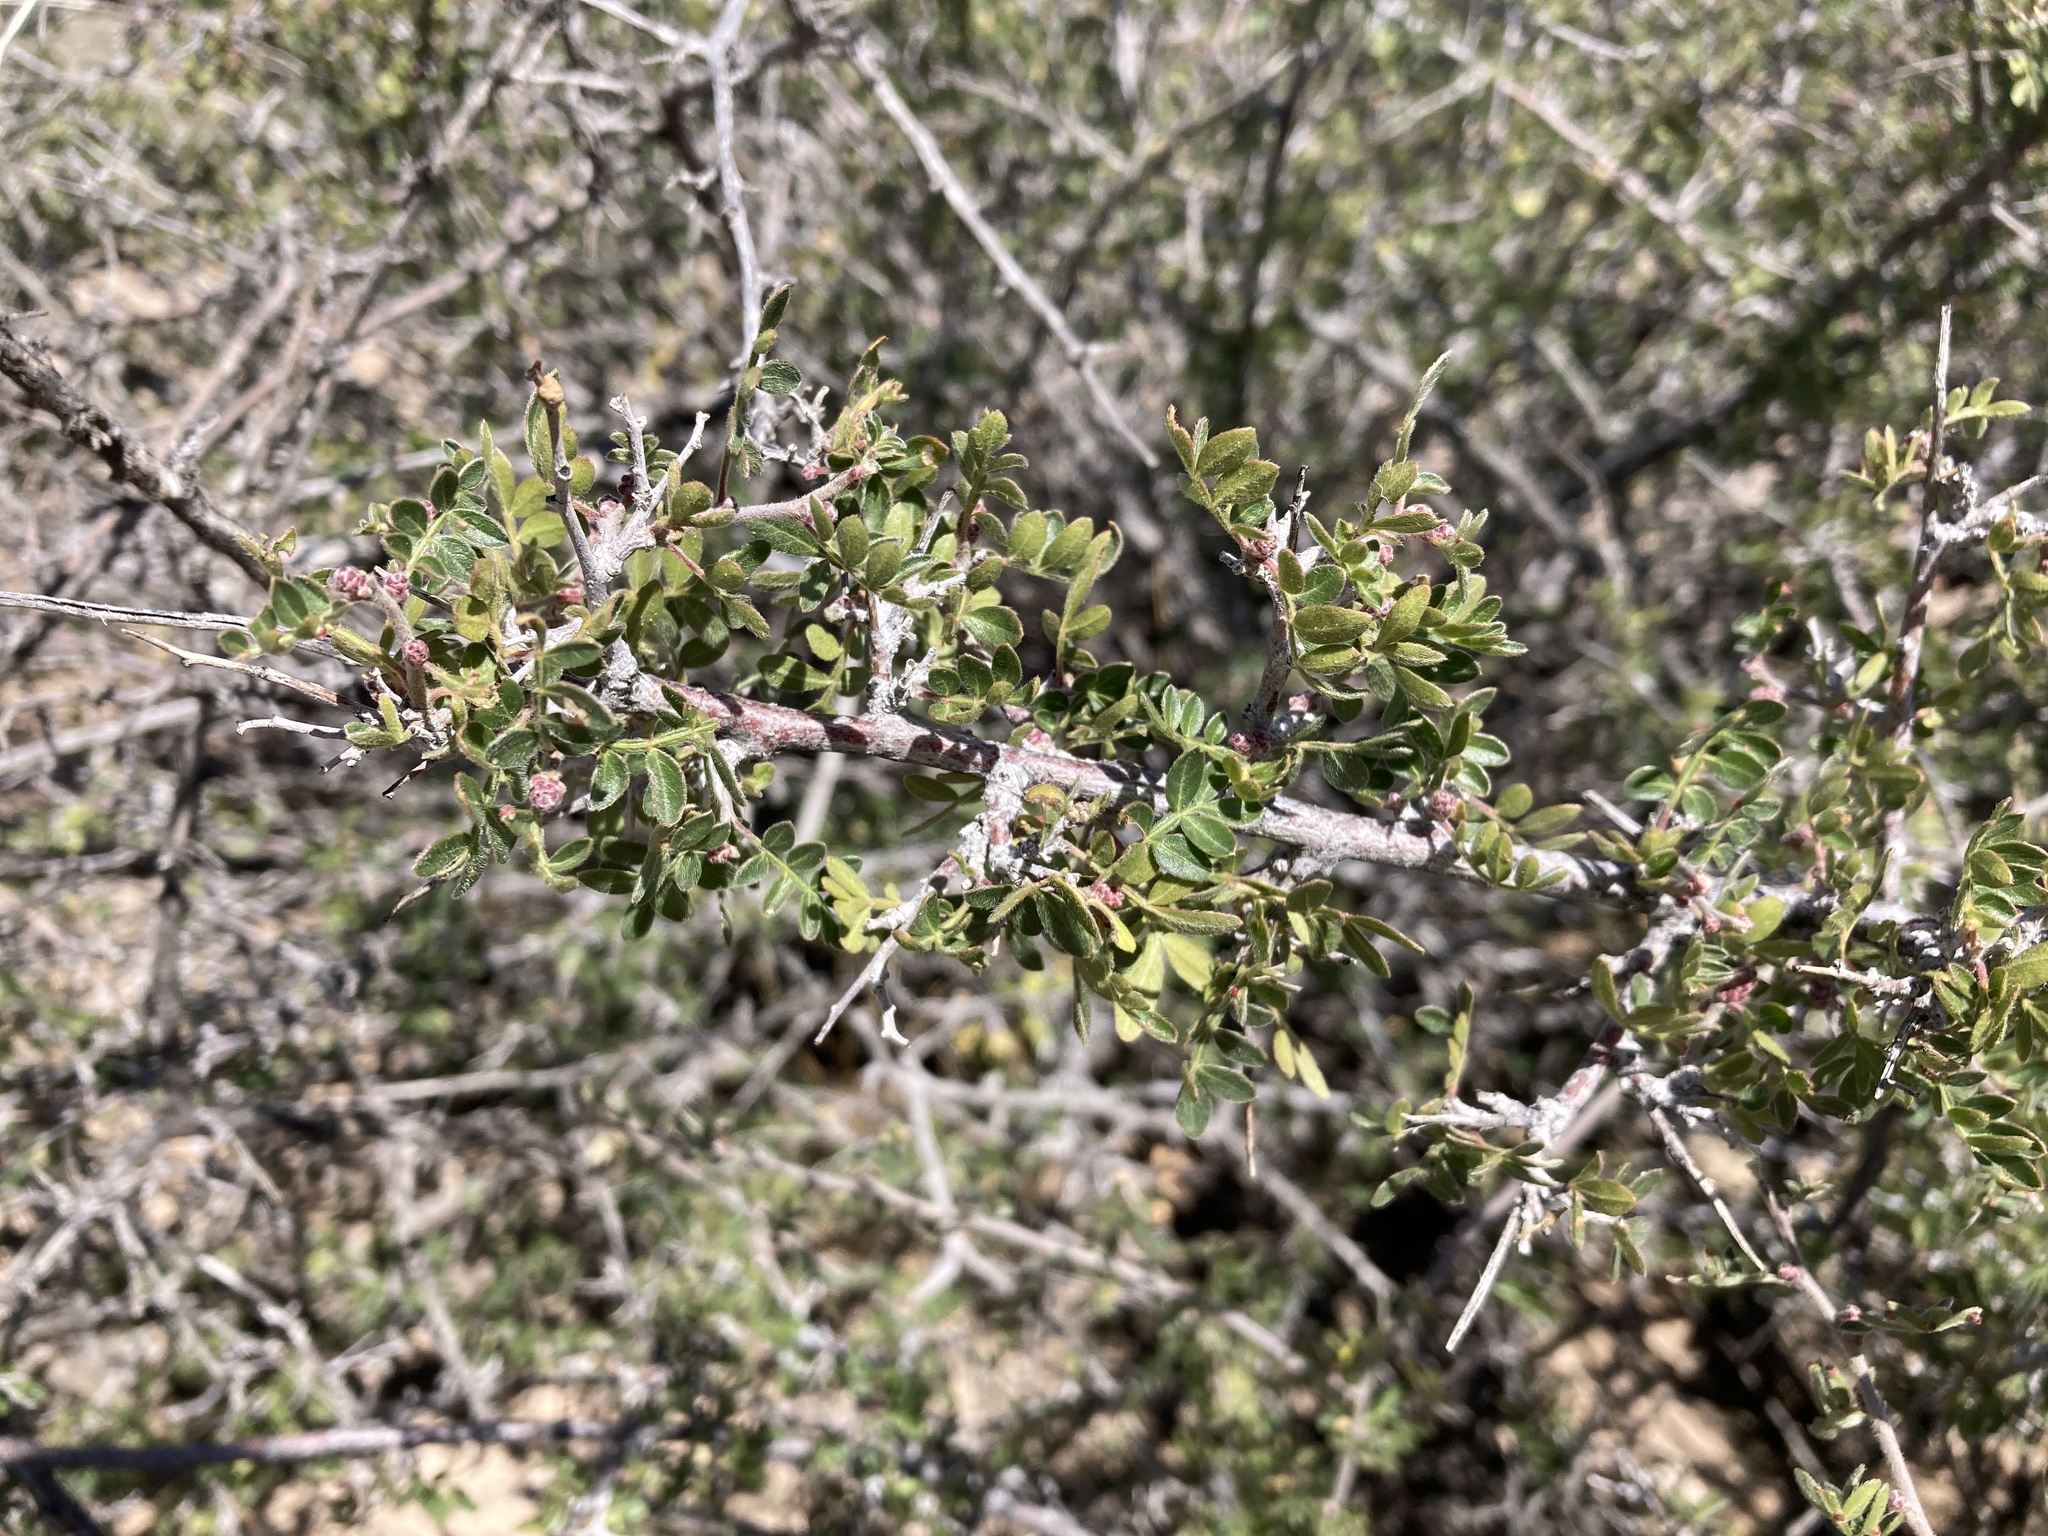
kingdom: Plantae
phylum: Tracheophyta
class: Magnoliopsida
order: Sapindales
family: Anacardiaceae
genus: Rhus
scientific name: Rhus microphylla
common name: Desert sumac
